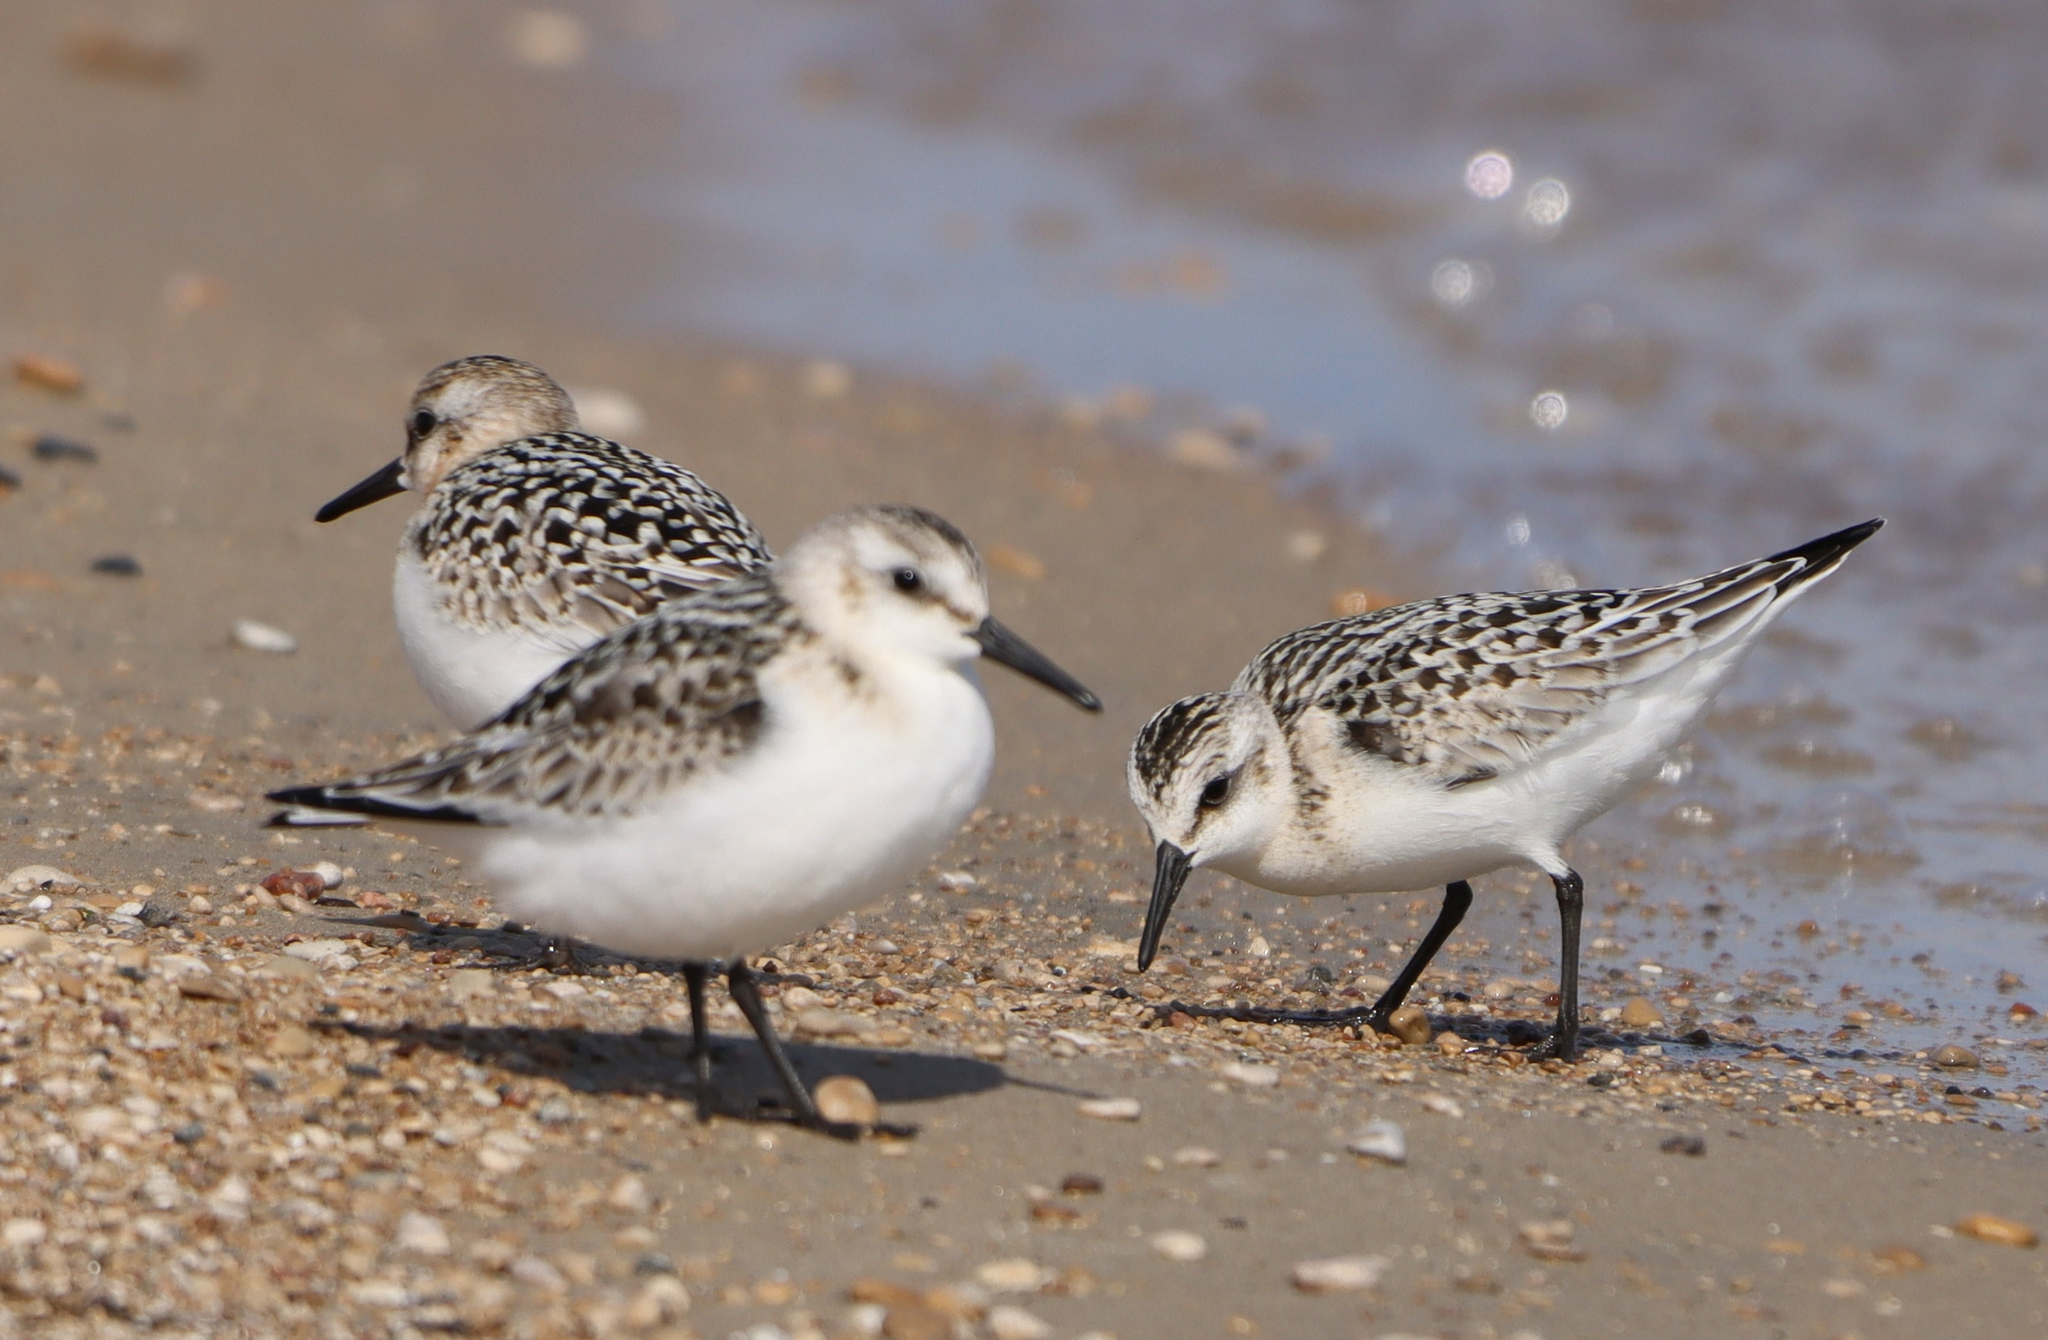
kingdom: Animalia
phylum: Chordata
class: Aves
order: Charadriiformes
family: Scolopacidae
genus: Calidris
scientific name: Calidris alba
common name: Sanderling
